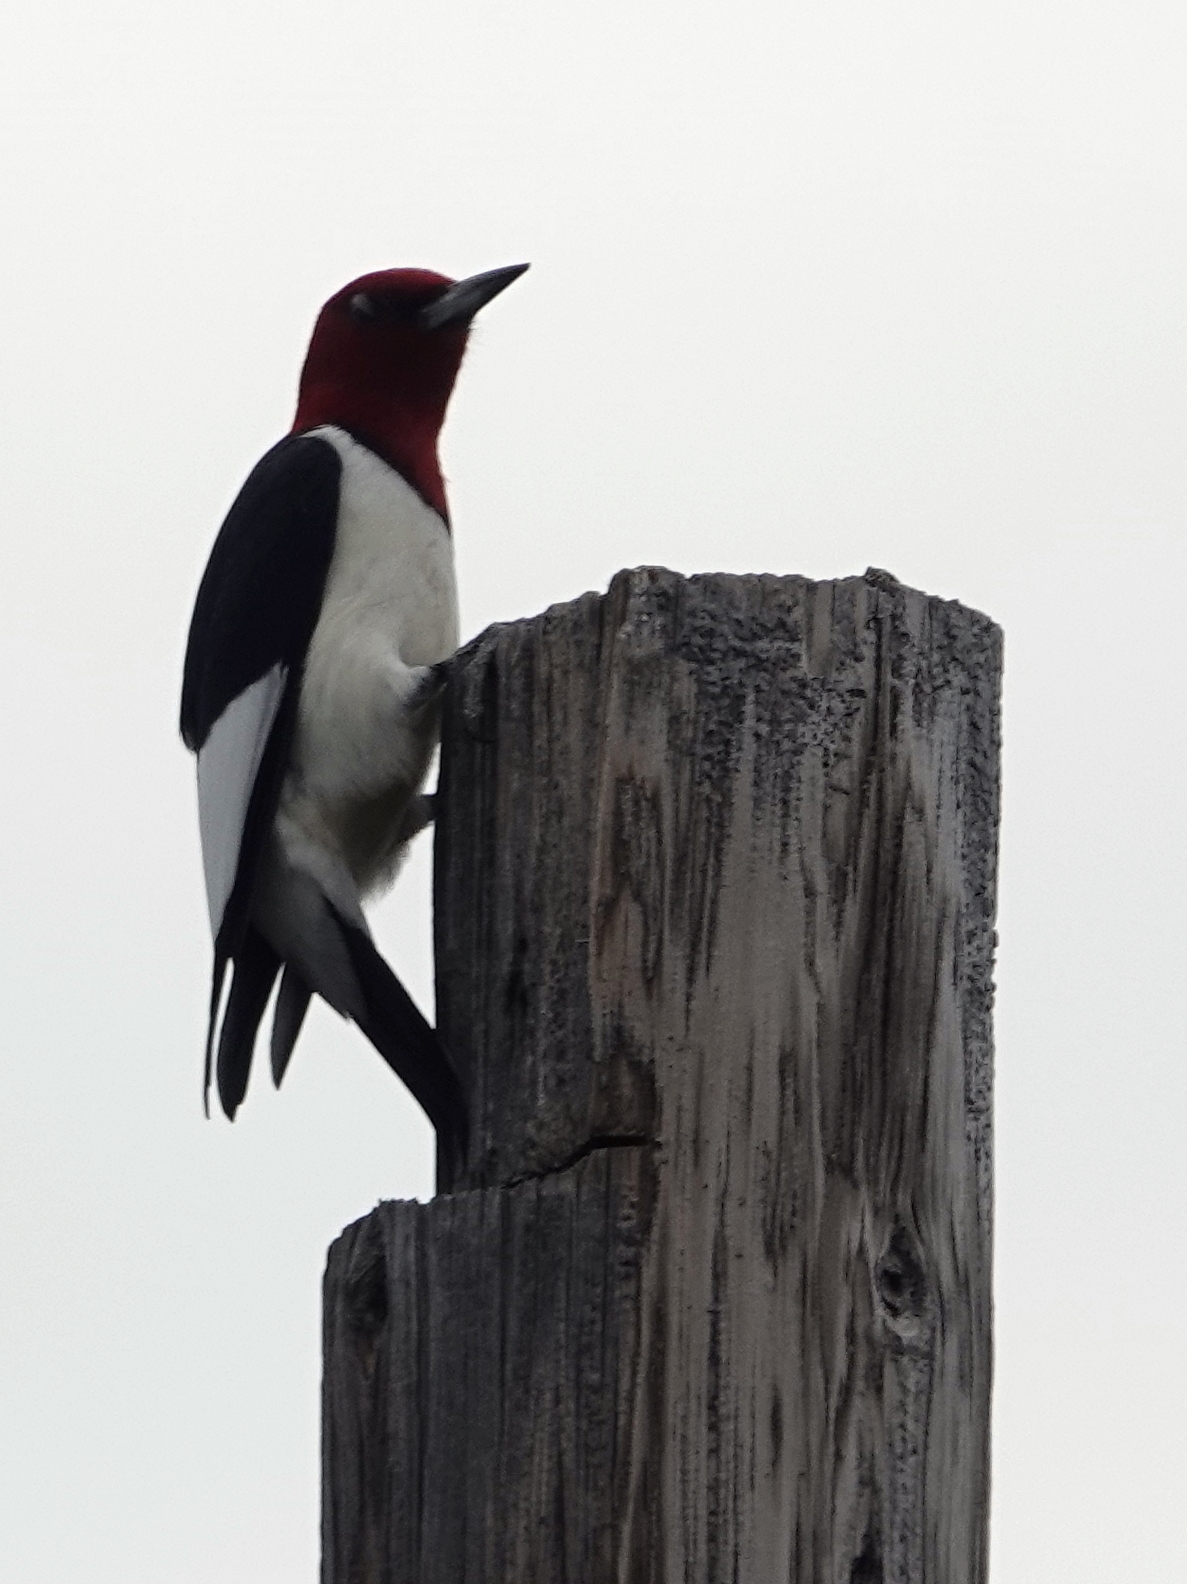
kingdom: Animalia
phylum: Chordata
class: Aves
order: Piciformes
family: Picidae
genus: Melanerpes
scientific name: Melanerpes erythrocephalus
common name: Red-headed woodpecker
